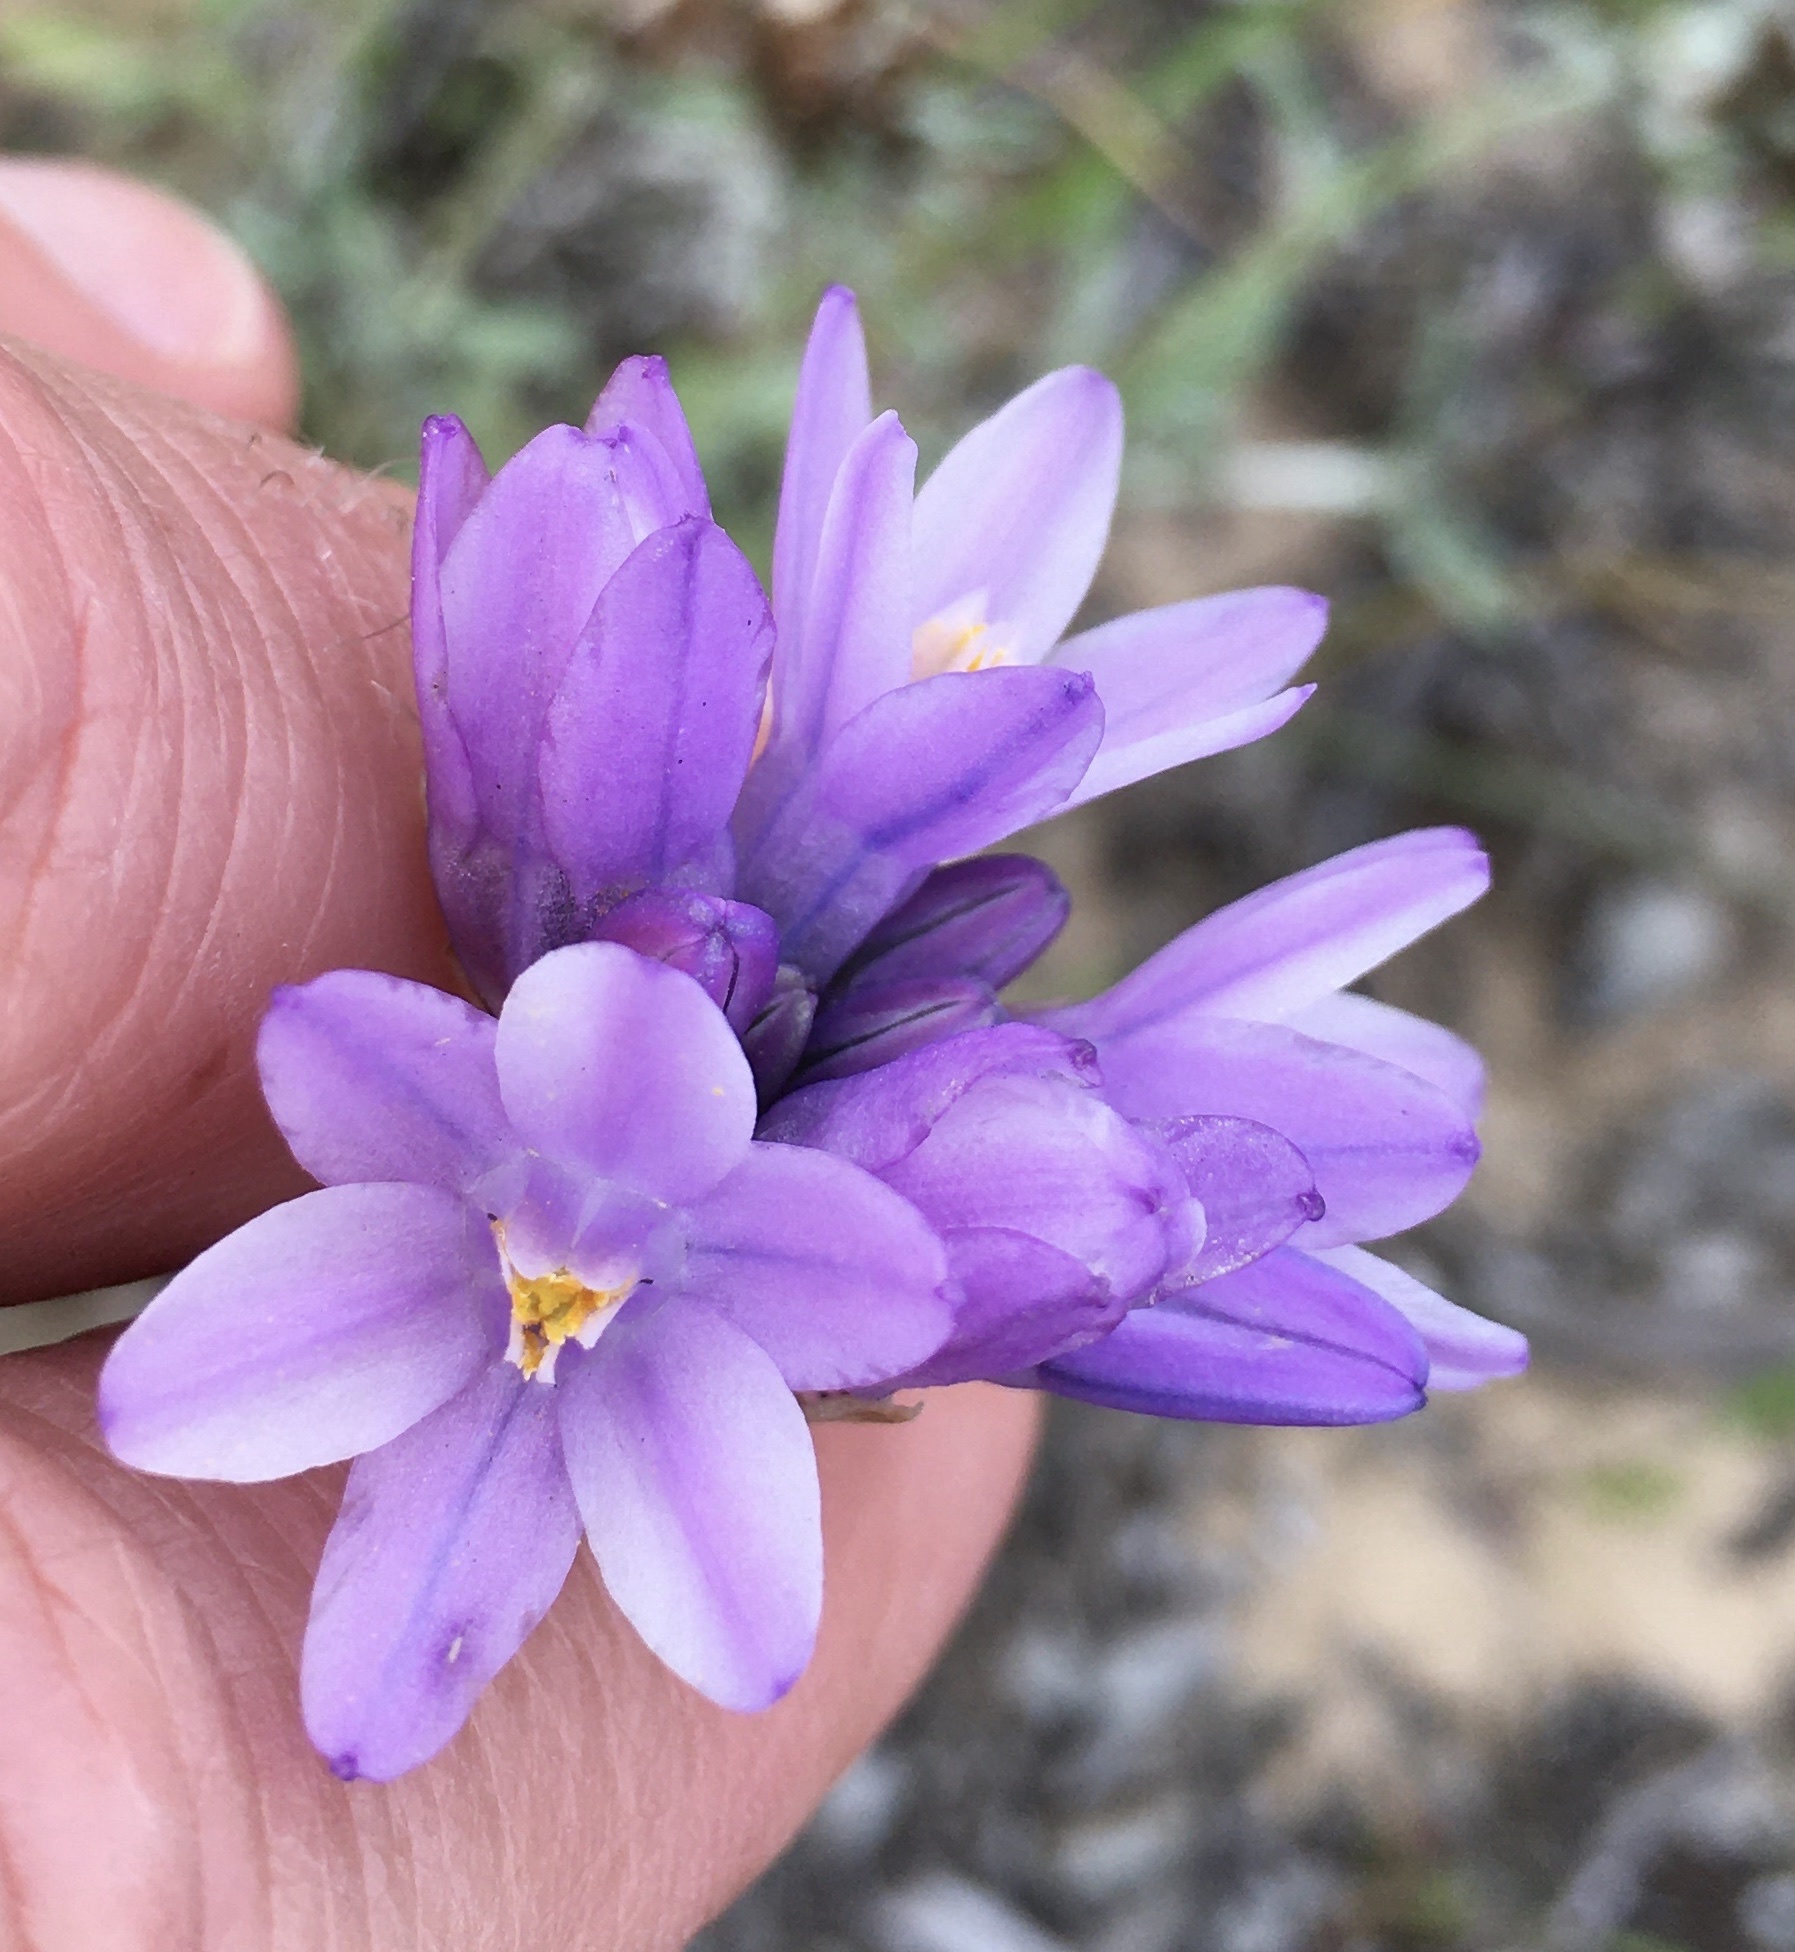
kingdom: Plantae
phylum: Tracheophyta
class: Liliopsida
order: Asparagales
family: Asparagaceae
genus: Dipterostemon
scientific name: Dipterostemon capitatus
